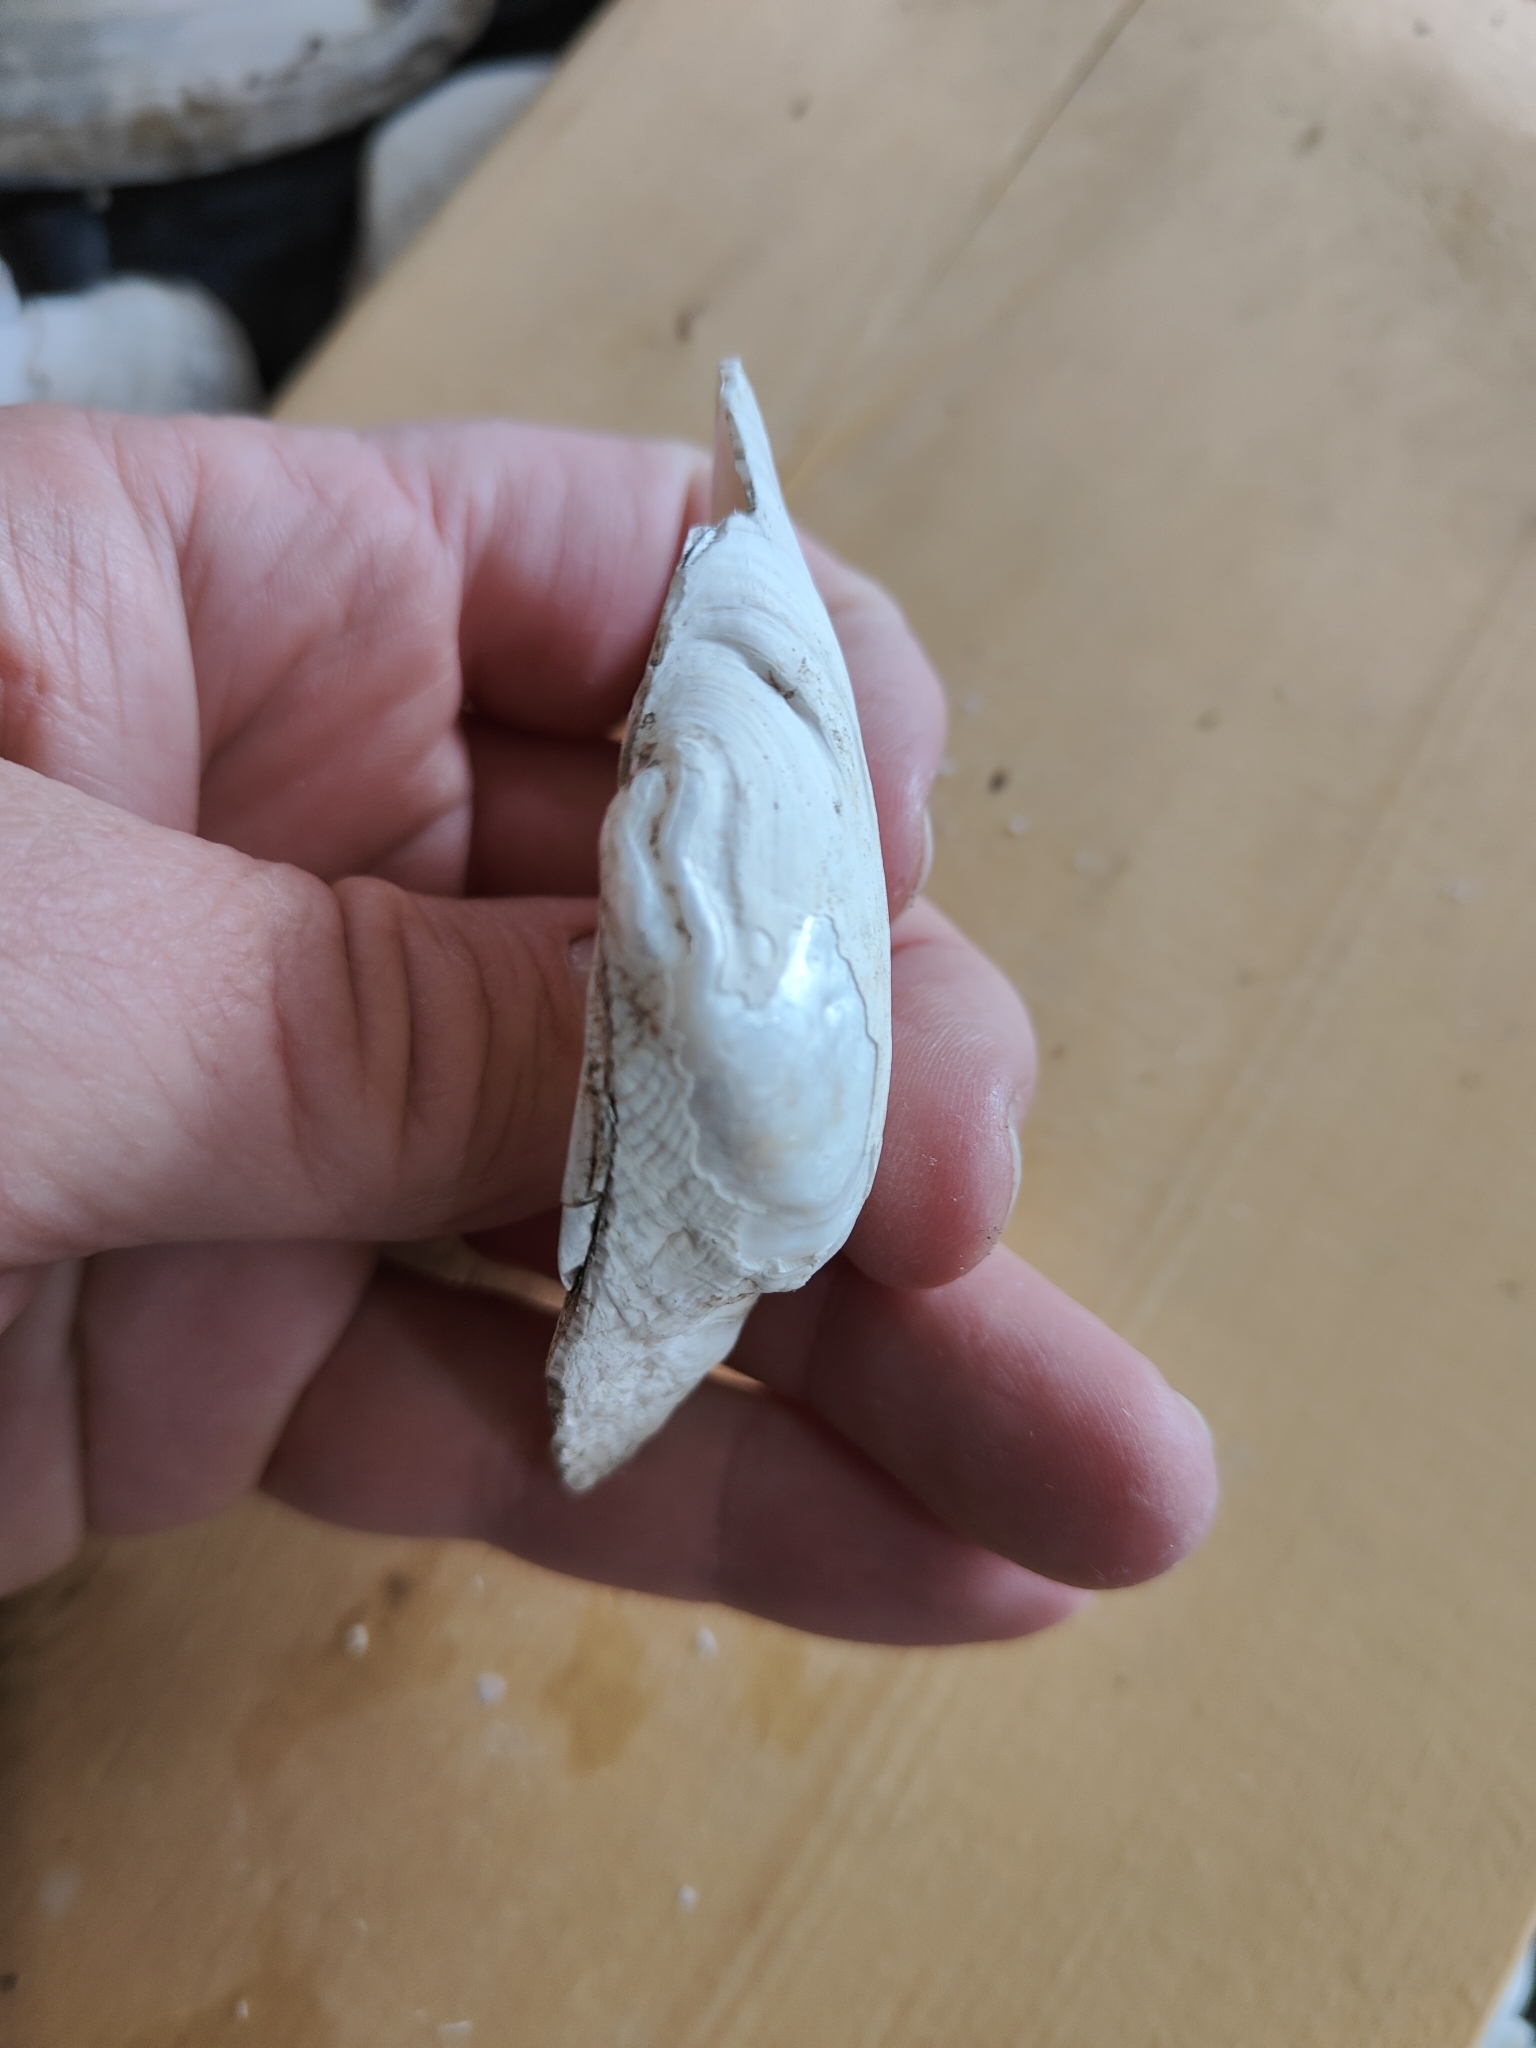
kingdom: Animalia
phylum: Mollusca
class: Bivalvia
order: Unionida
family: Unionidae
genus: Alasmidonta
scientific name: Alasmidonta marginata
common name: Elktoe
